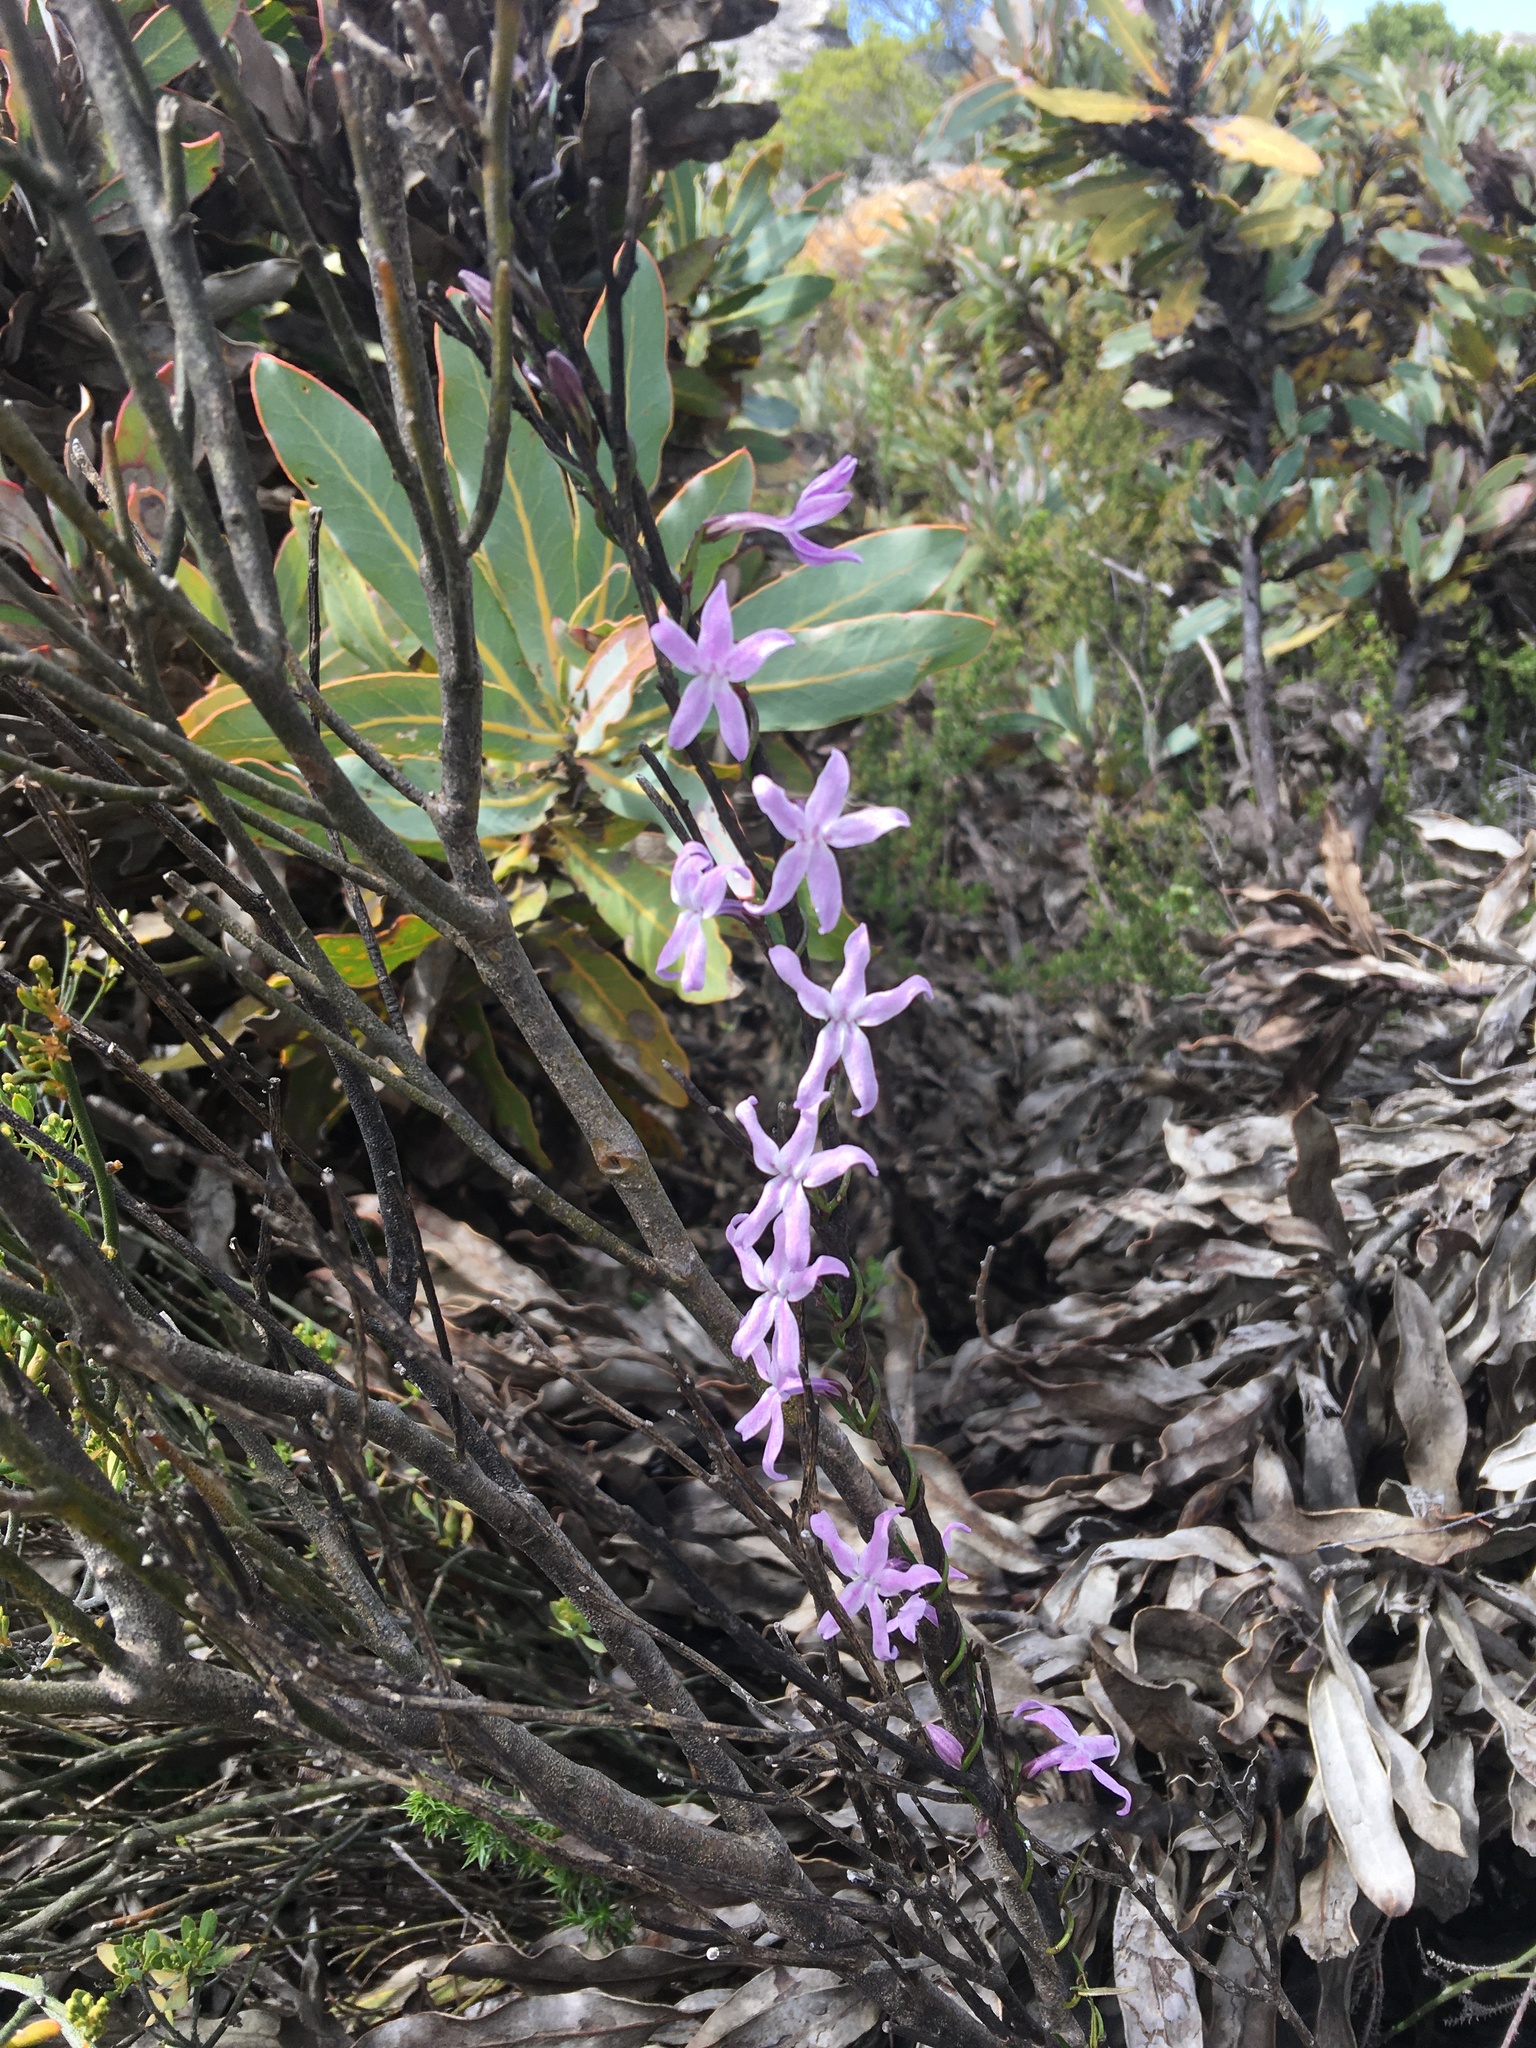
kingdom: Plantae
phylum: Tracheophyta
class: Magnoliopsida
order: Asterales
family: Campanulaceae
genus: Cyphia
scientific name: Cyphia volubilis
